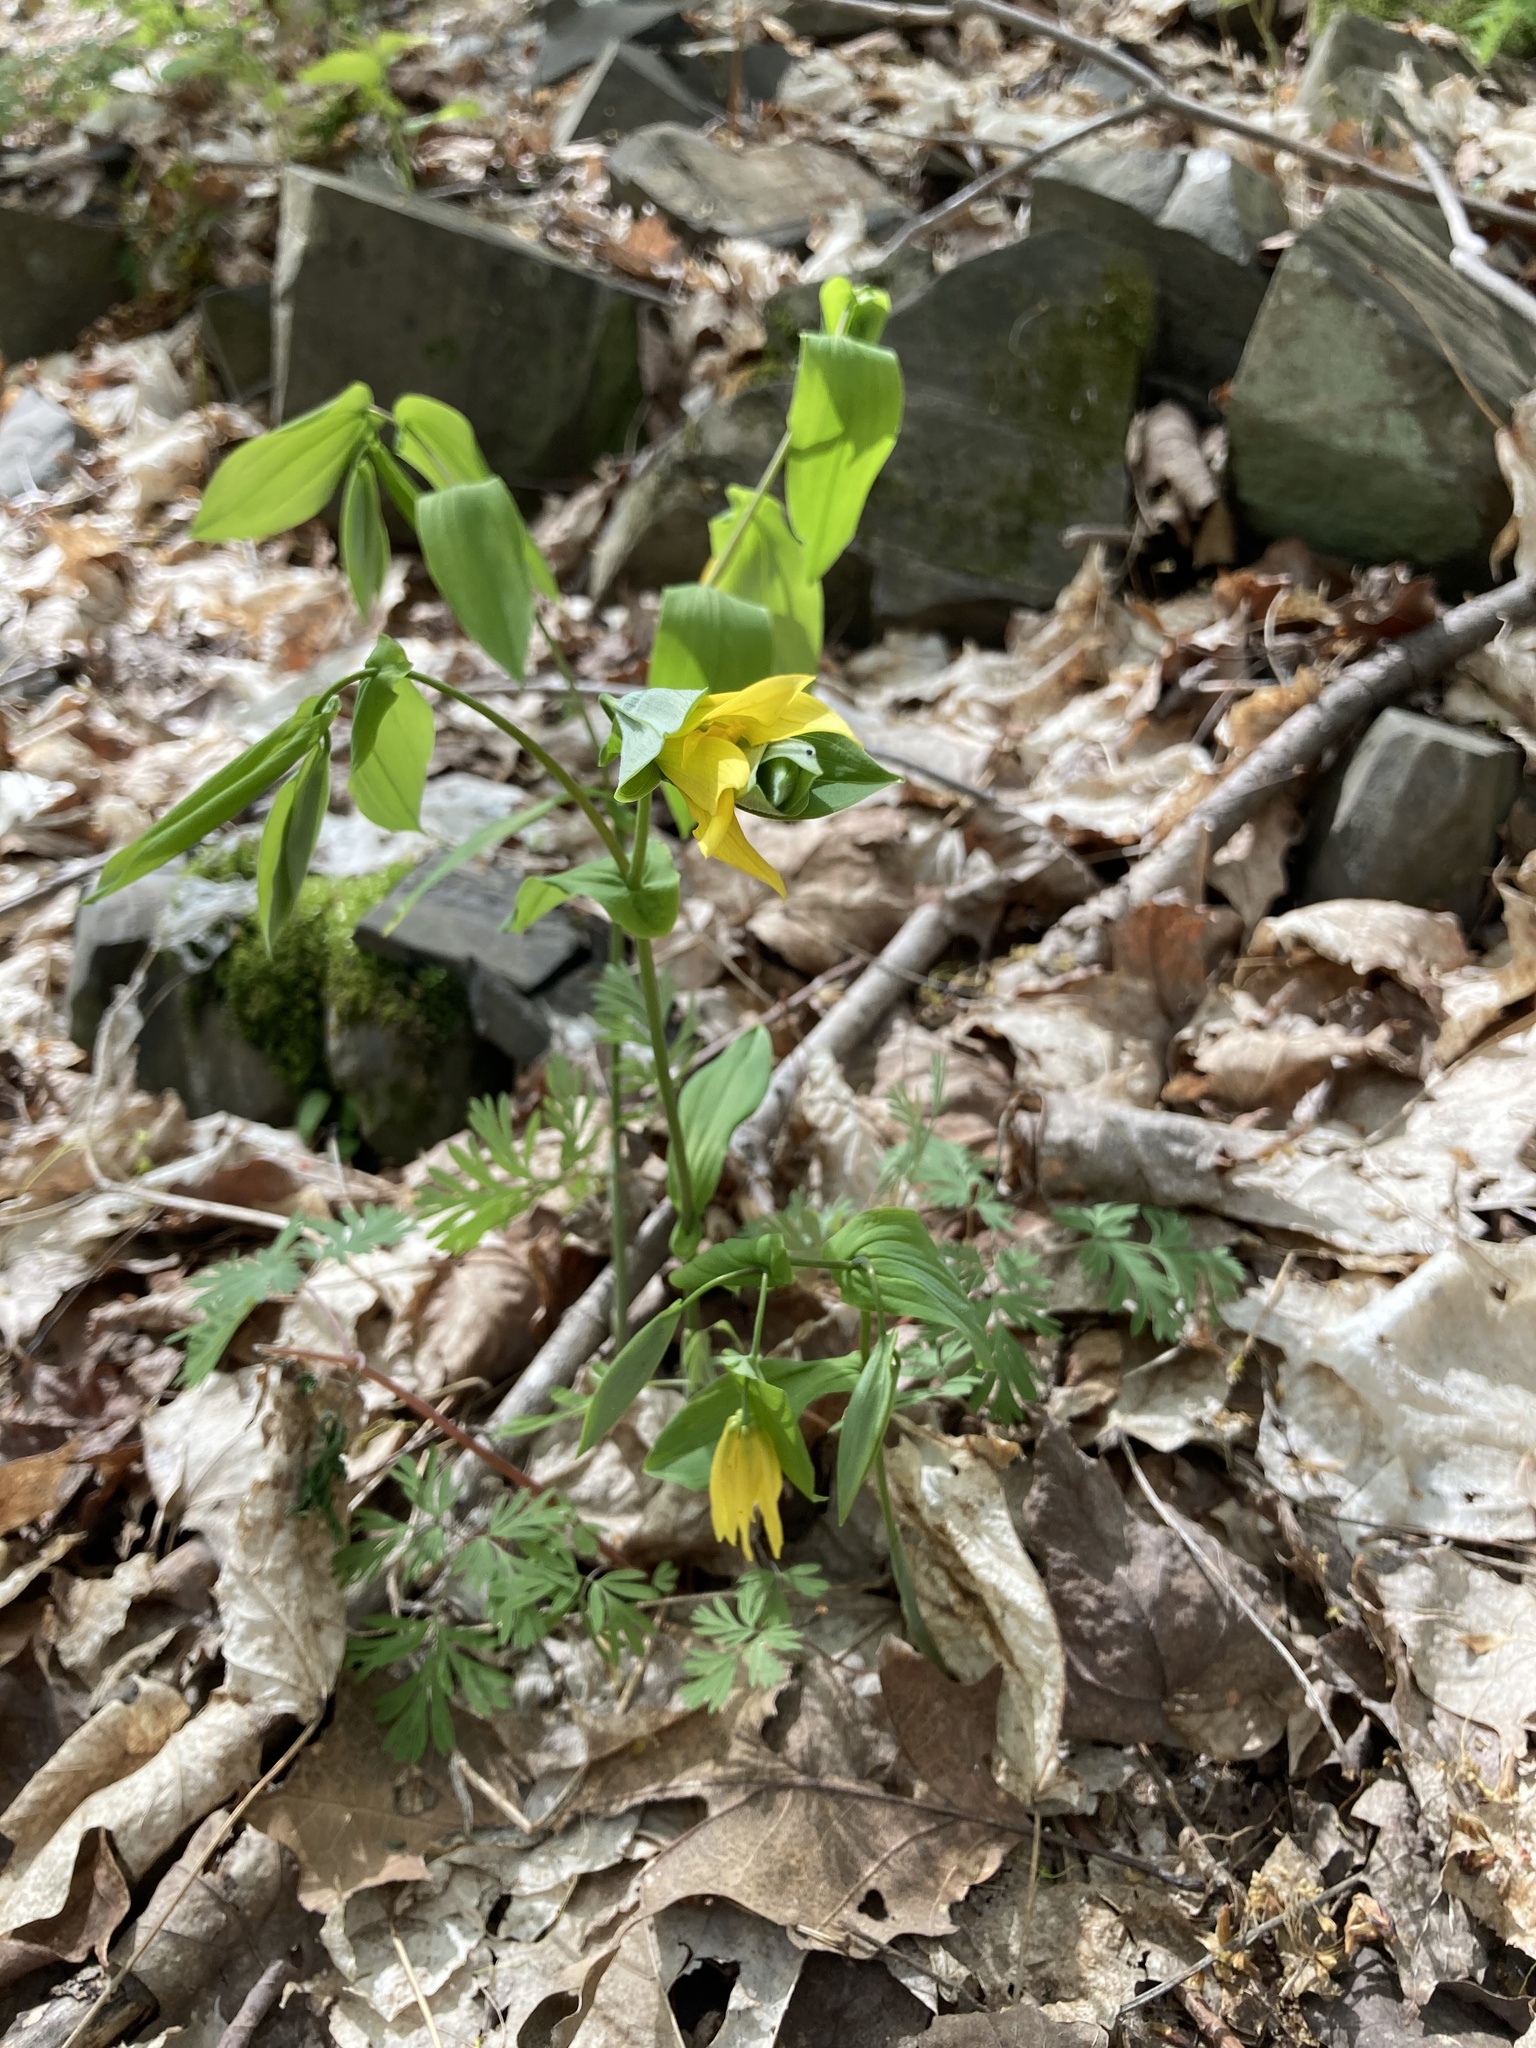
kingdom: Plantae
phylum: Tracheophyta
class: Liliopsida
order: Liliales
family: Colchicaceae
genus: Uvularia
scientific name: Uvularia grandiflora
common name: Bellwort
